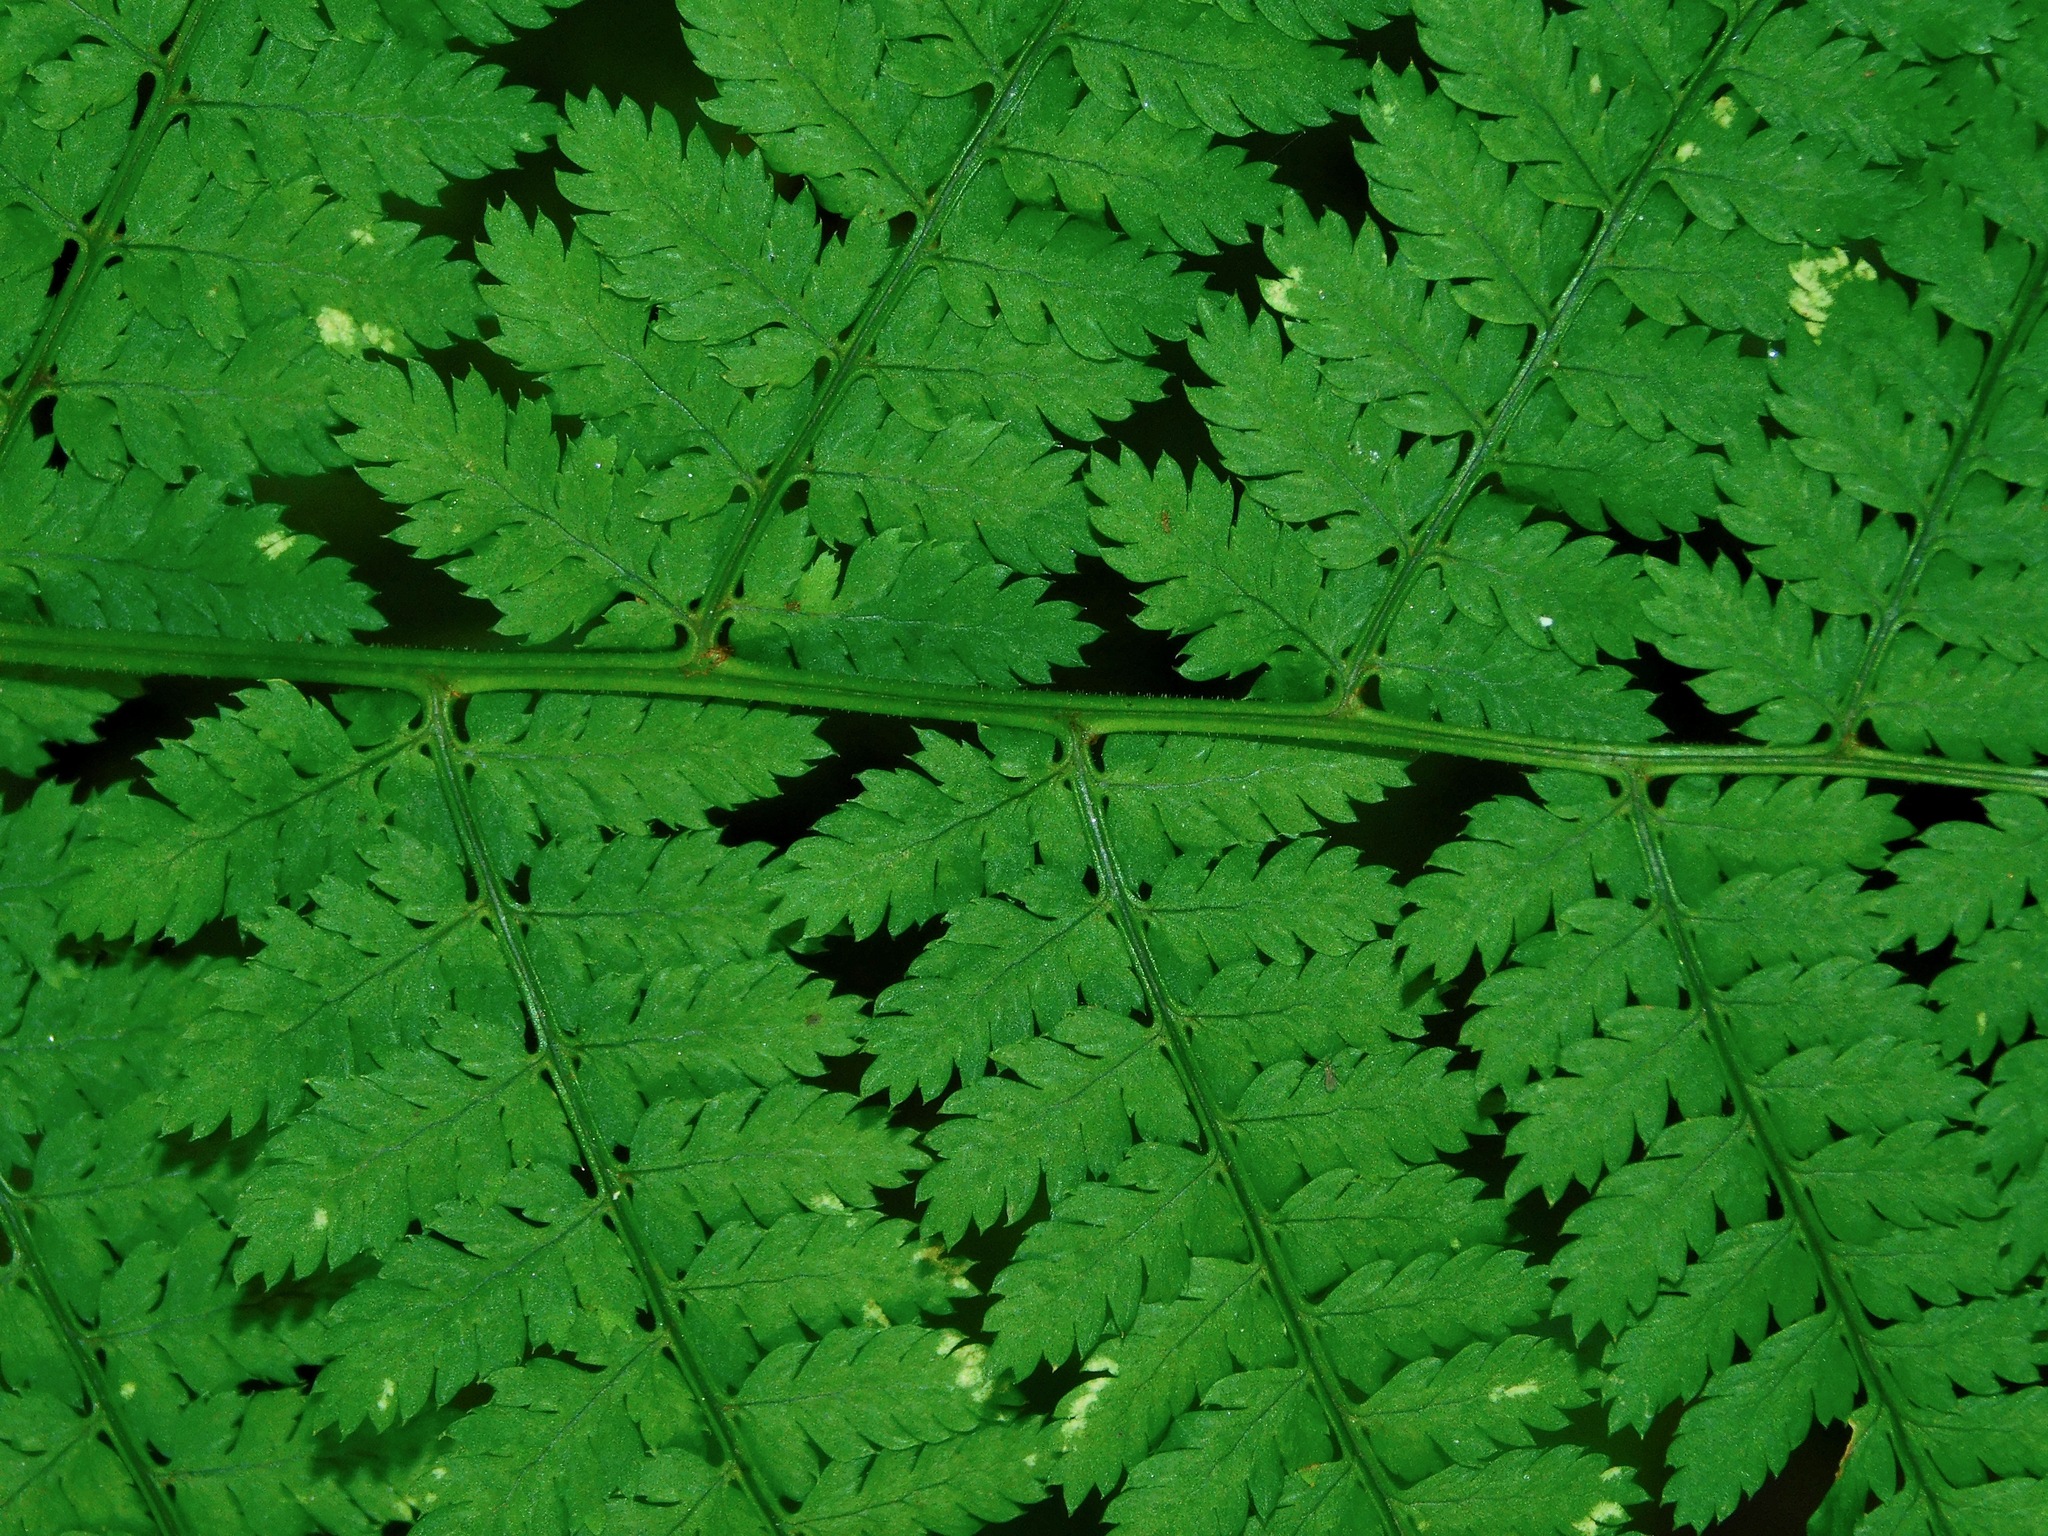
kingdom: Plantae
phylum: Tracheophyta
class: Polypodiopsida
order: Polypodiales
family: Dryopteridaceae
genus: Dryopteris
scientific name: Dryopteris intermedia
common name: Evergreen wood fern
